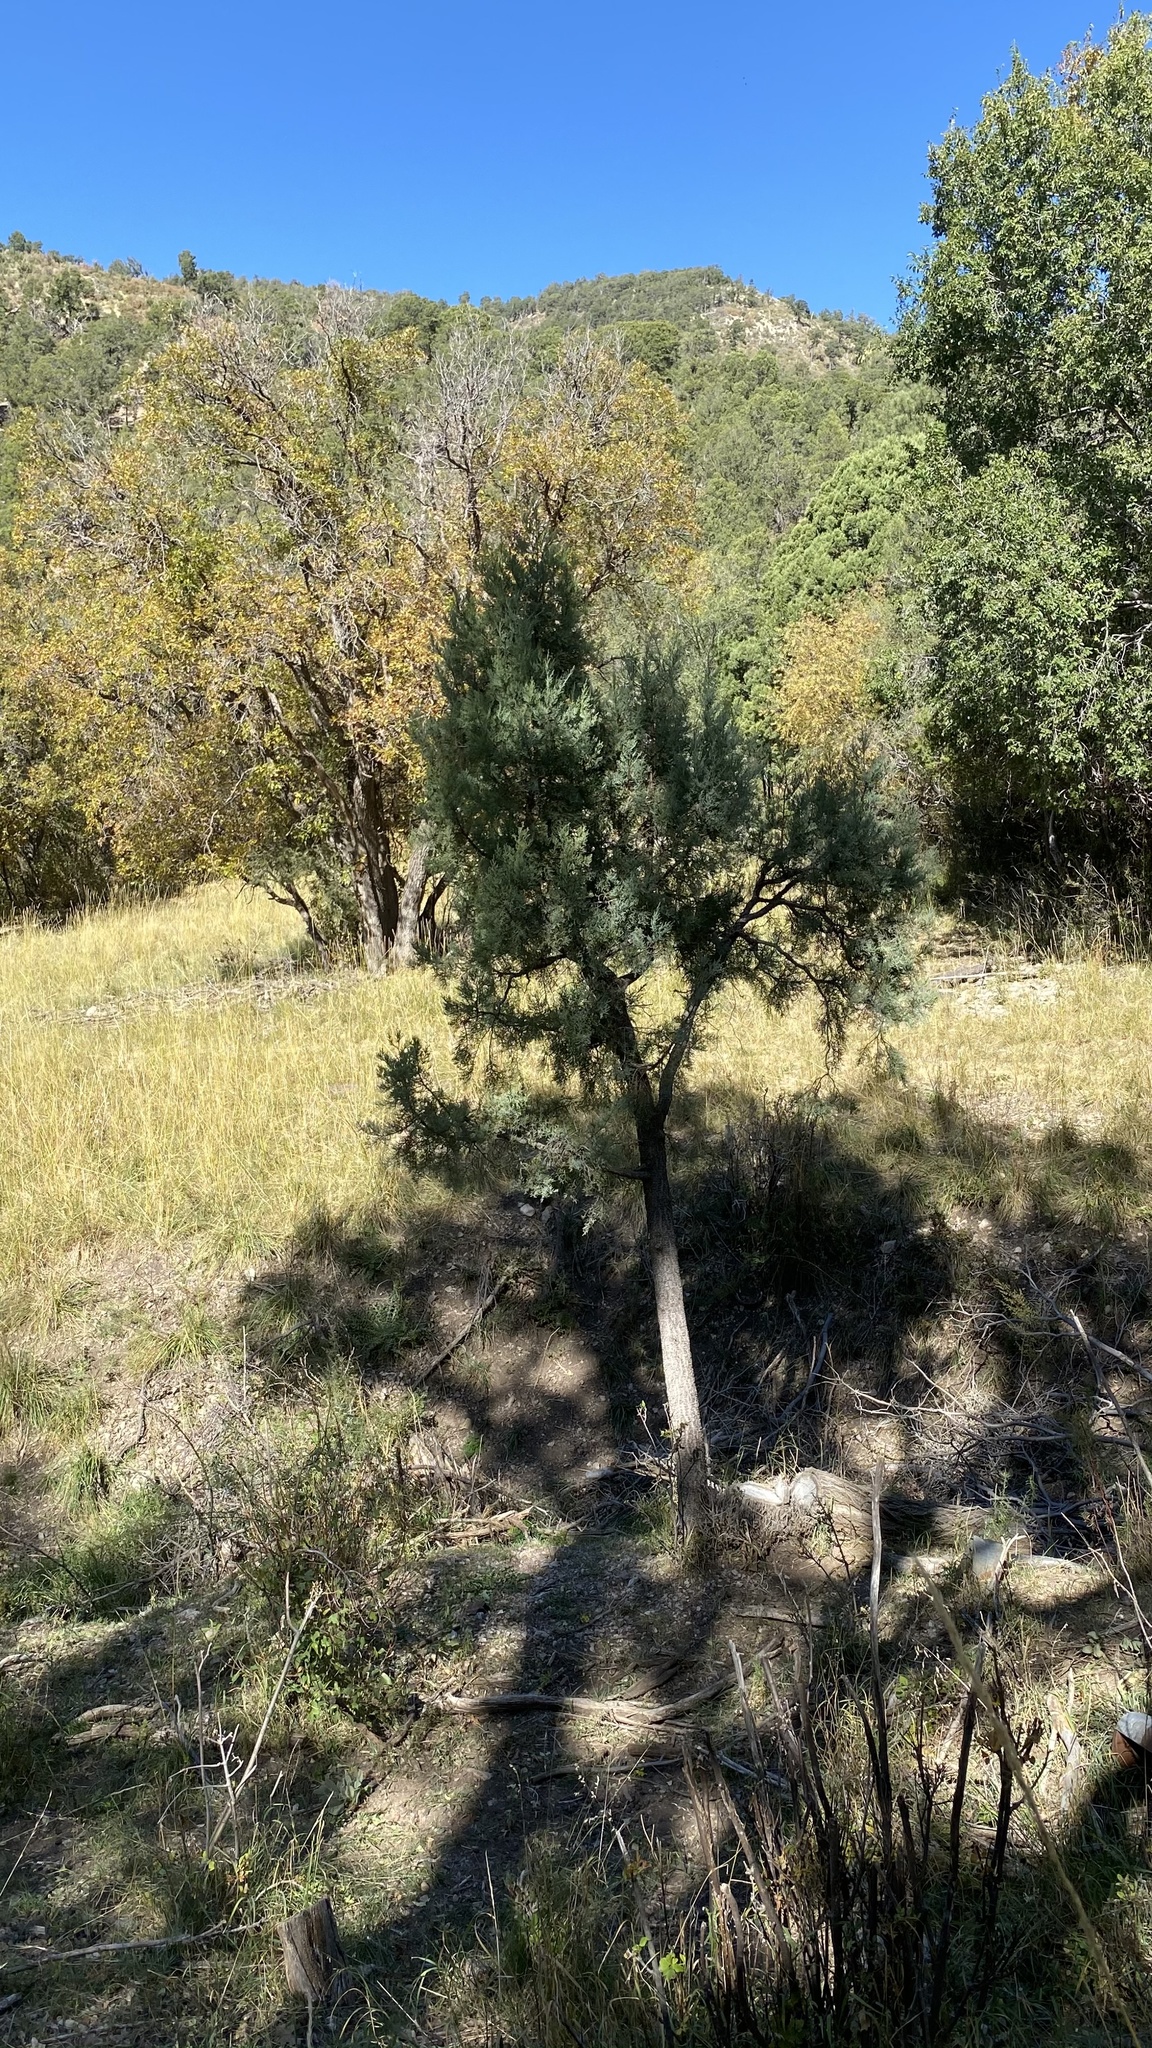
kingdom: Plantae
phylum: Tracheophyta
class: Pinopsida
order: Pinales
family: Cupressaceae
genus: Juniperus
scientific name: Juniperus deppeana
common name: Alligator juniper
